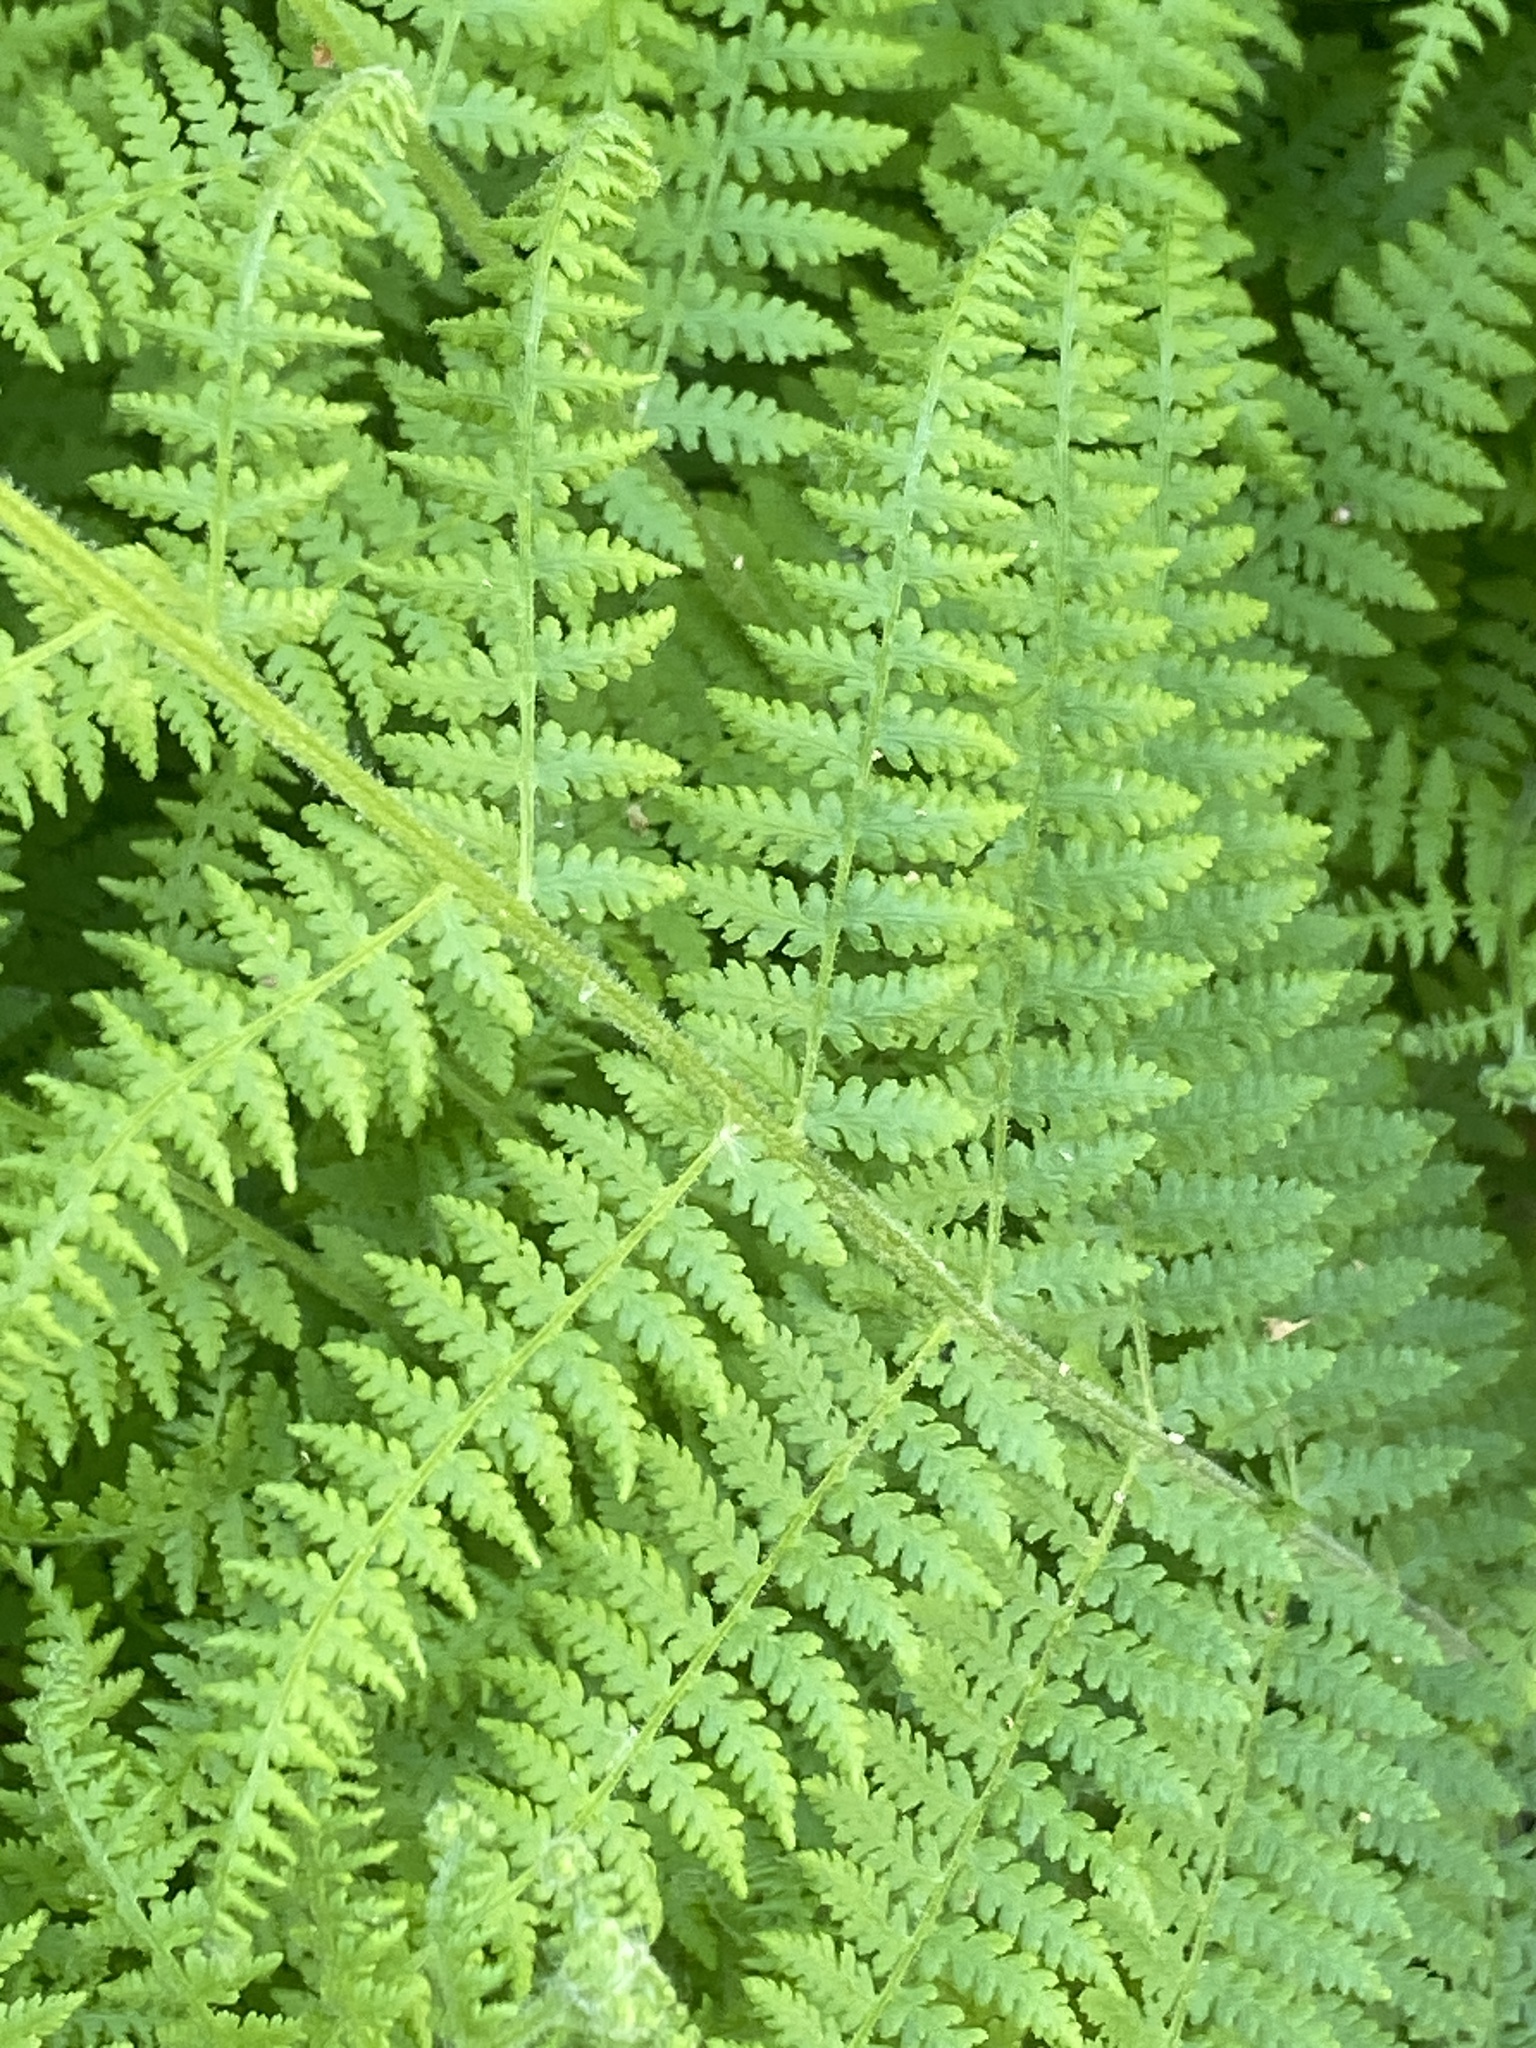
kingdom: Plantae
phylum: Tracheophyta
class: Polypodiopsida
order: Polypodiales
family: Dennstaedtiaceae
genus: Sitobolium
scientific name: Sitobolium punctilobum
